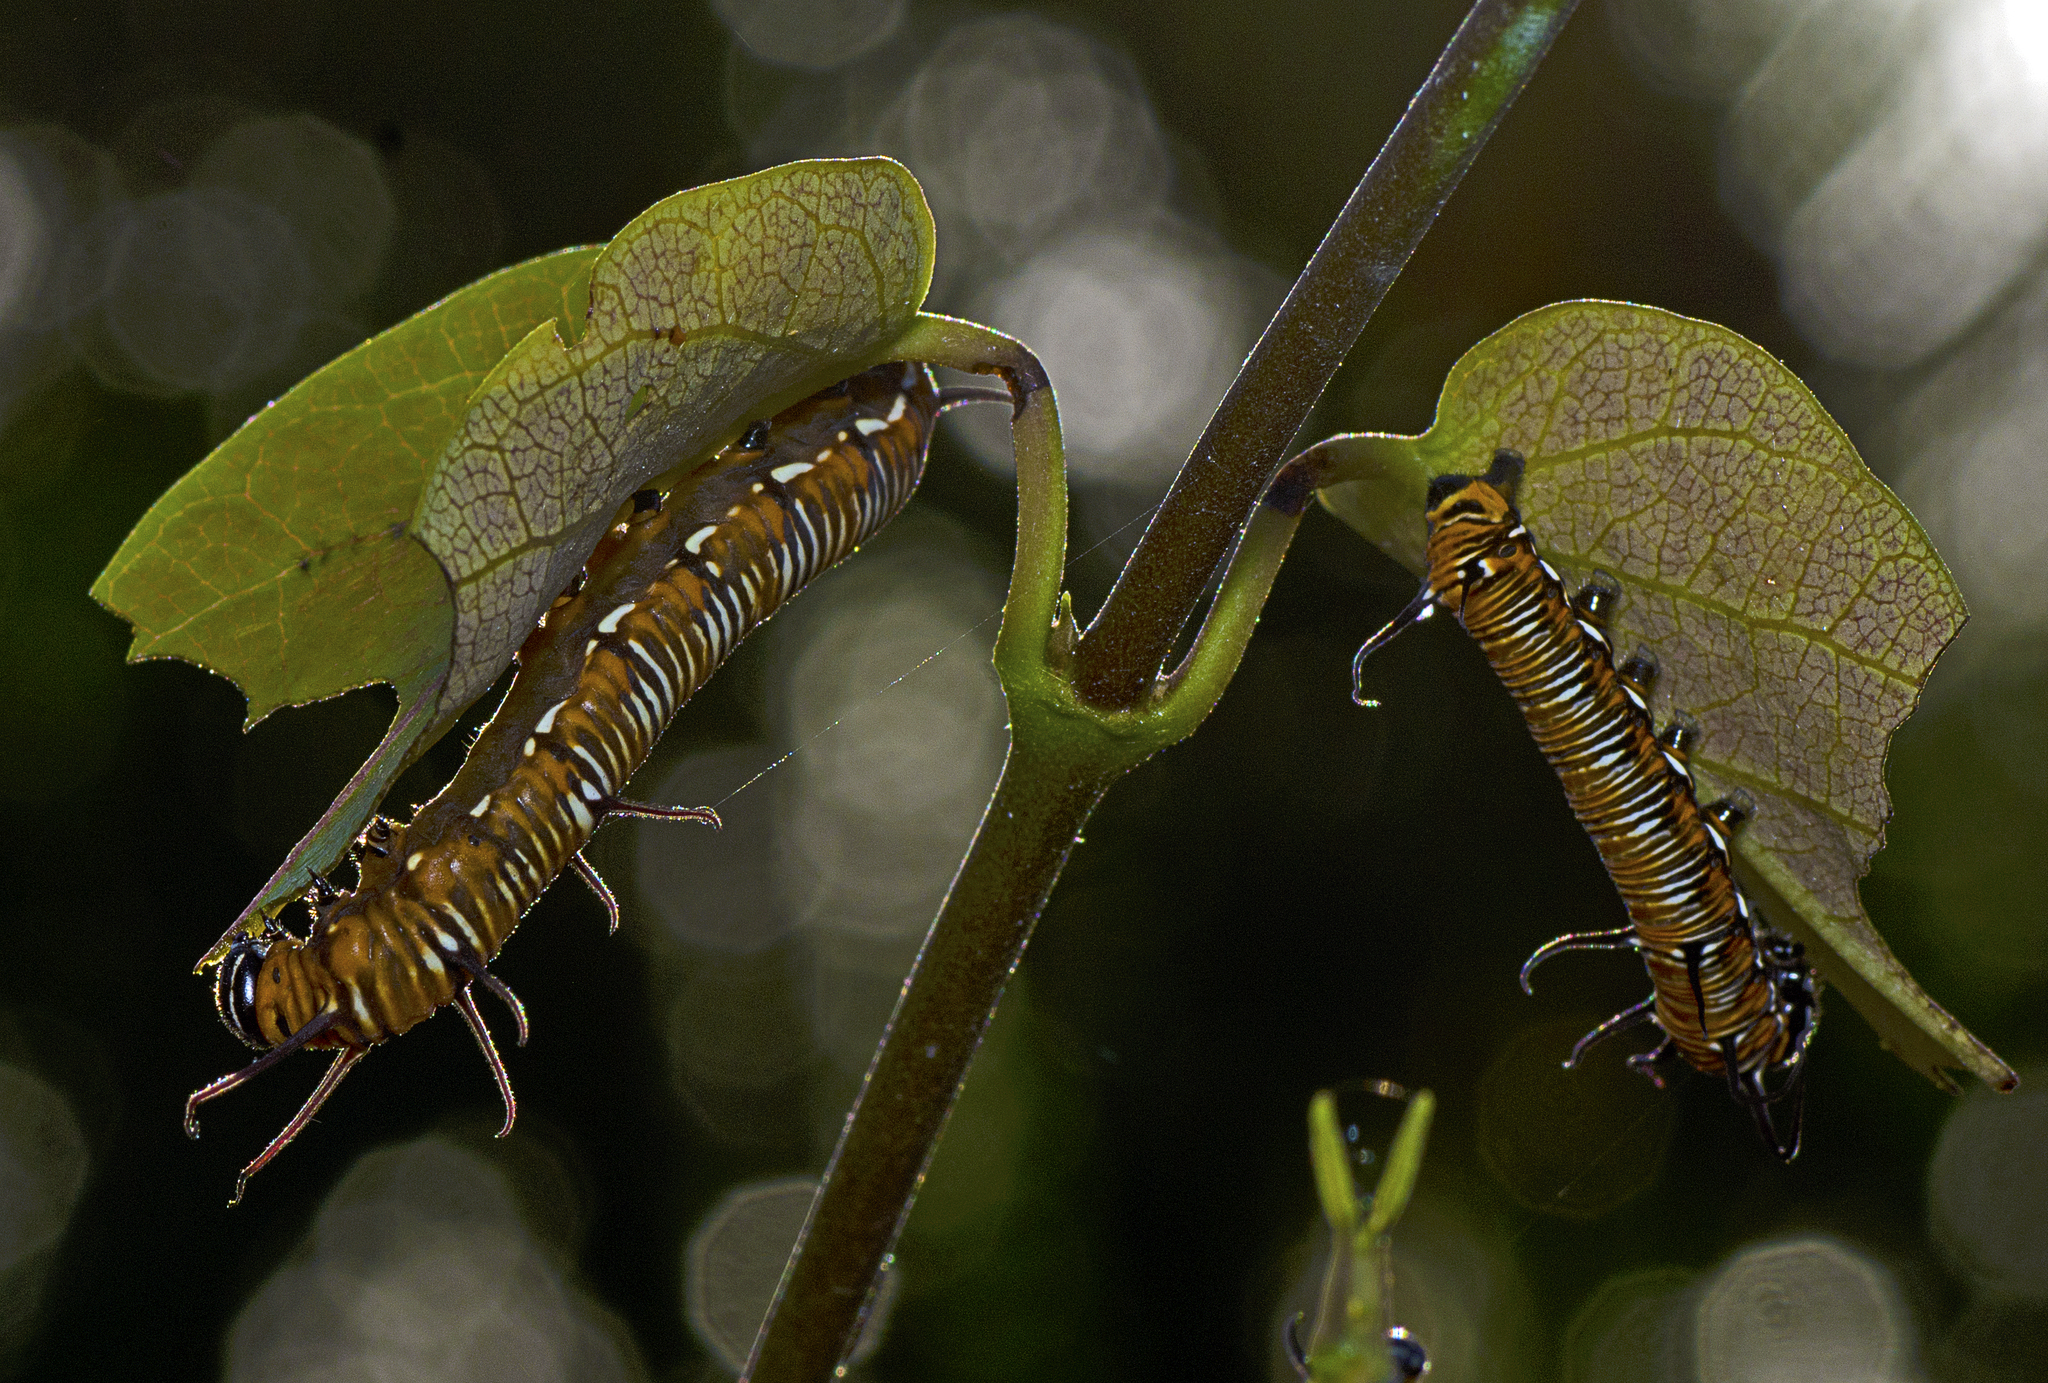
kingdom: Animalia
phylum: Arthropoda
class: Insecta
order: Lepidoptera
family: Nymphalidae
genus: Euploea
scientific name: Euploea core
